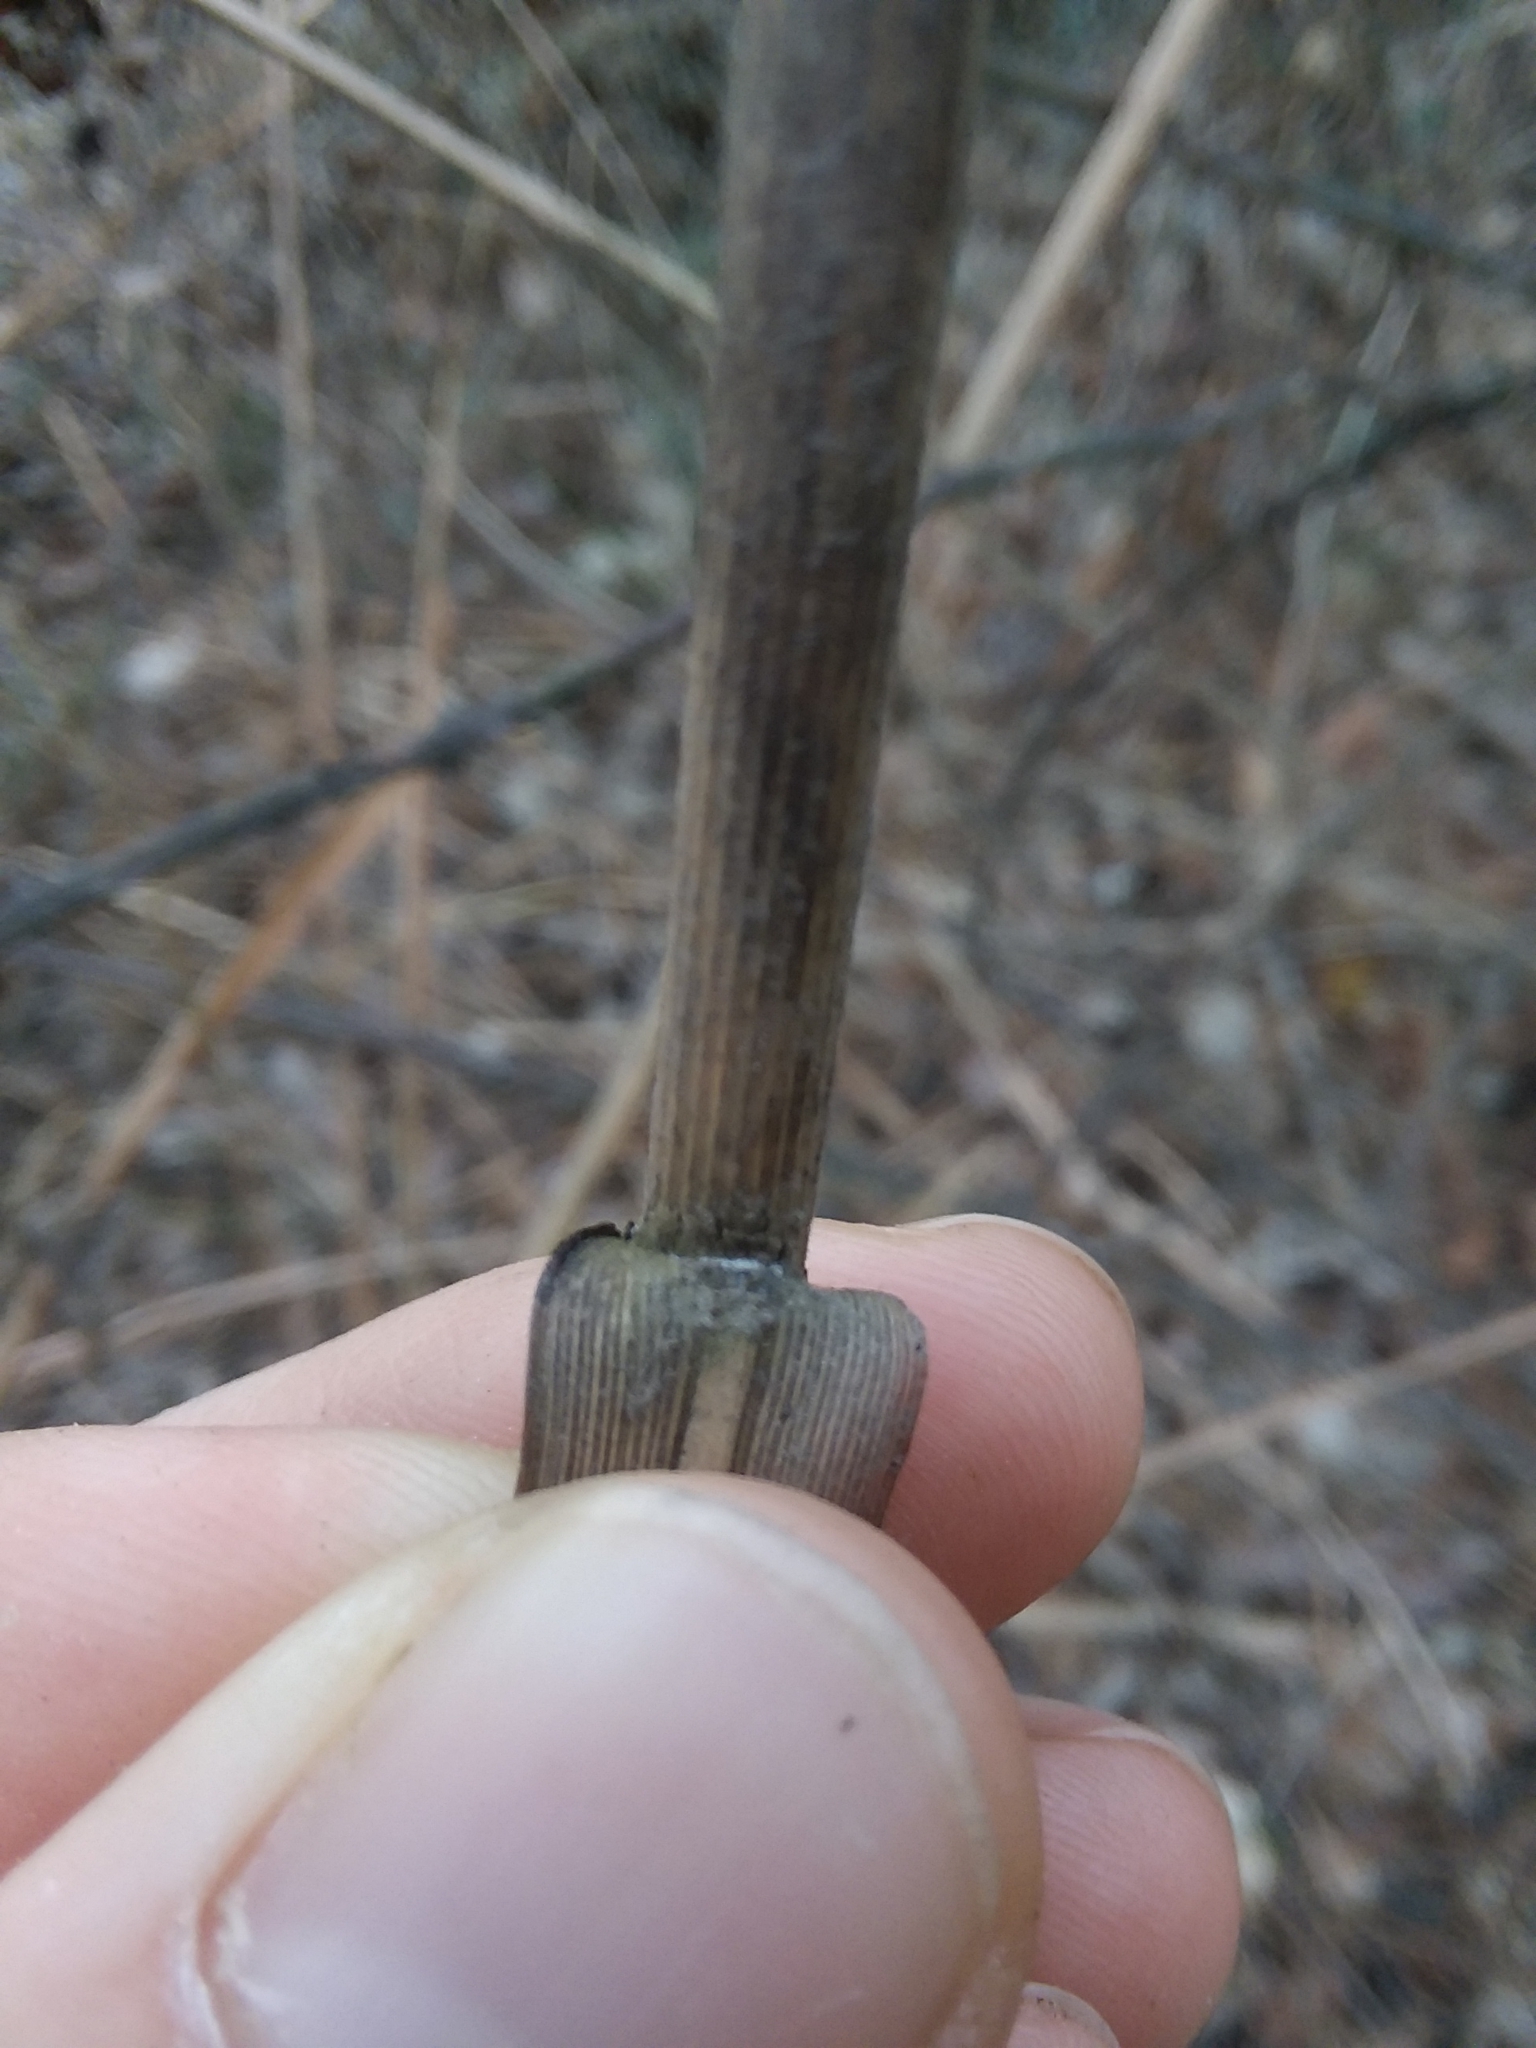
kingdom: Plantae
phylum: Tracheophyta
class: Liliopsida
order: Poales
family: Poaceae
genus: Erianthus
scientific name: Erianthus strictus
